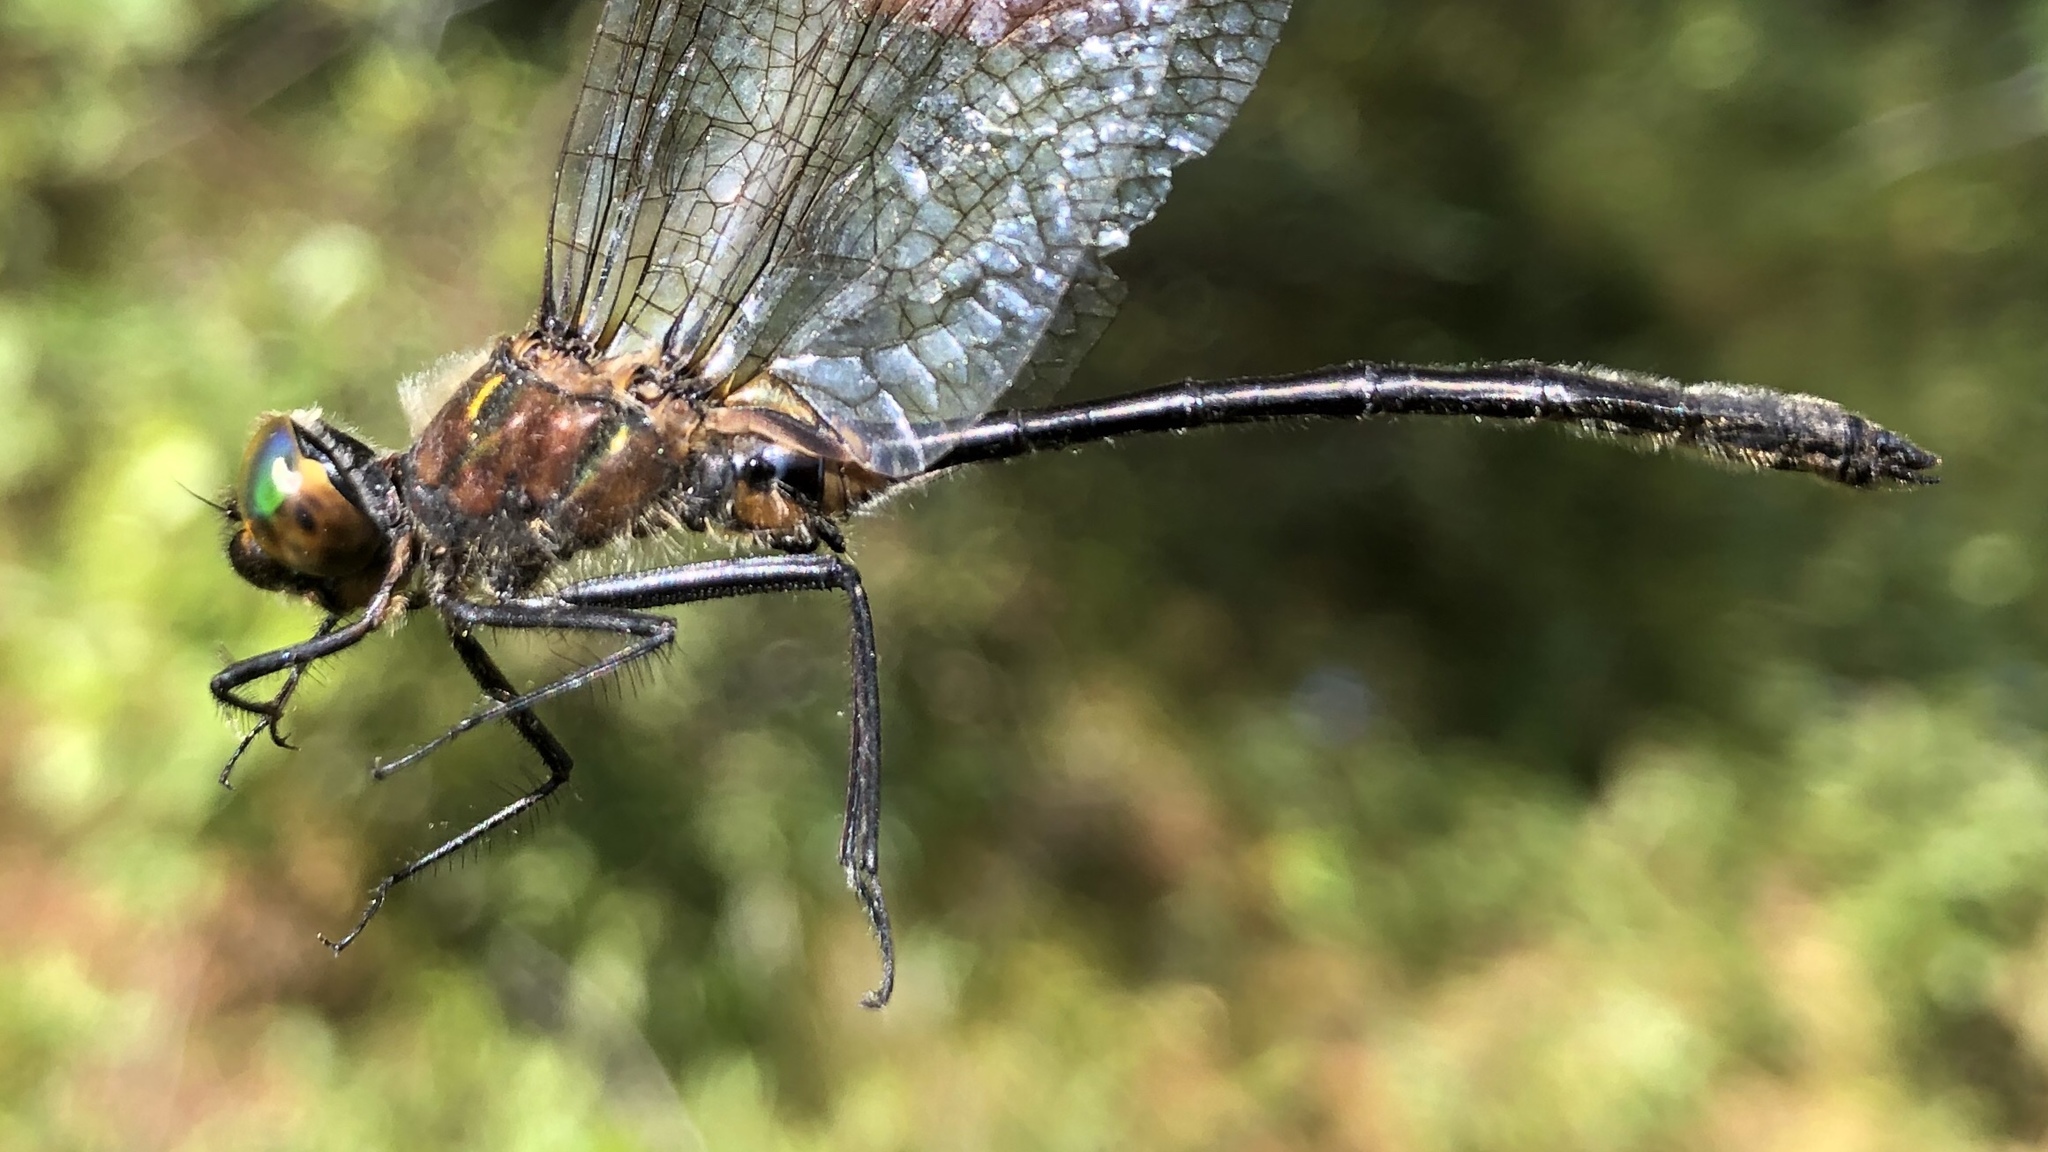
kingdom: Animalia
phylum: Arthropoda
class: Insecta
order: Odonata
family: Corduliidae
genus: Dorocordulia
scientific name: Dorocordulia libera
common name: Racket-tailed emerald
